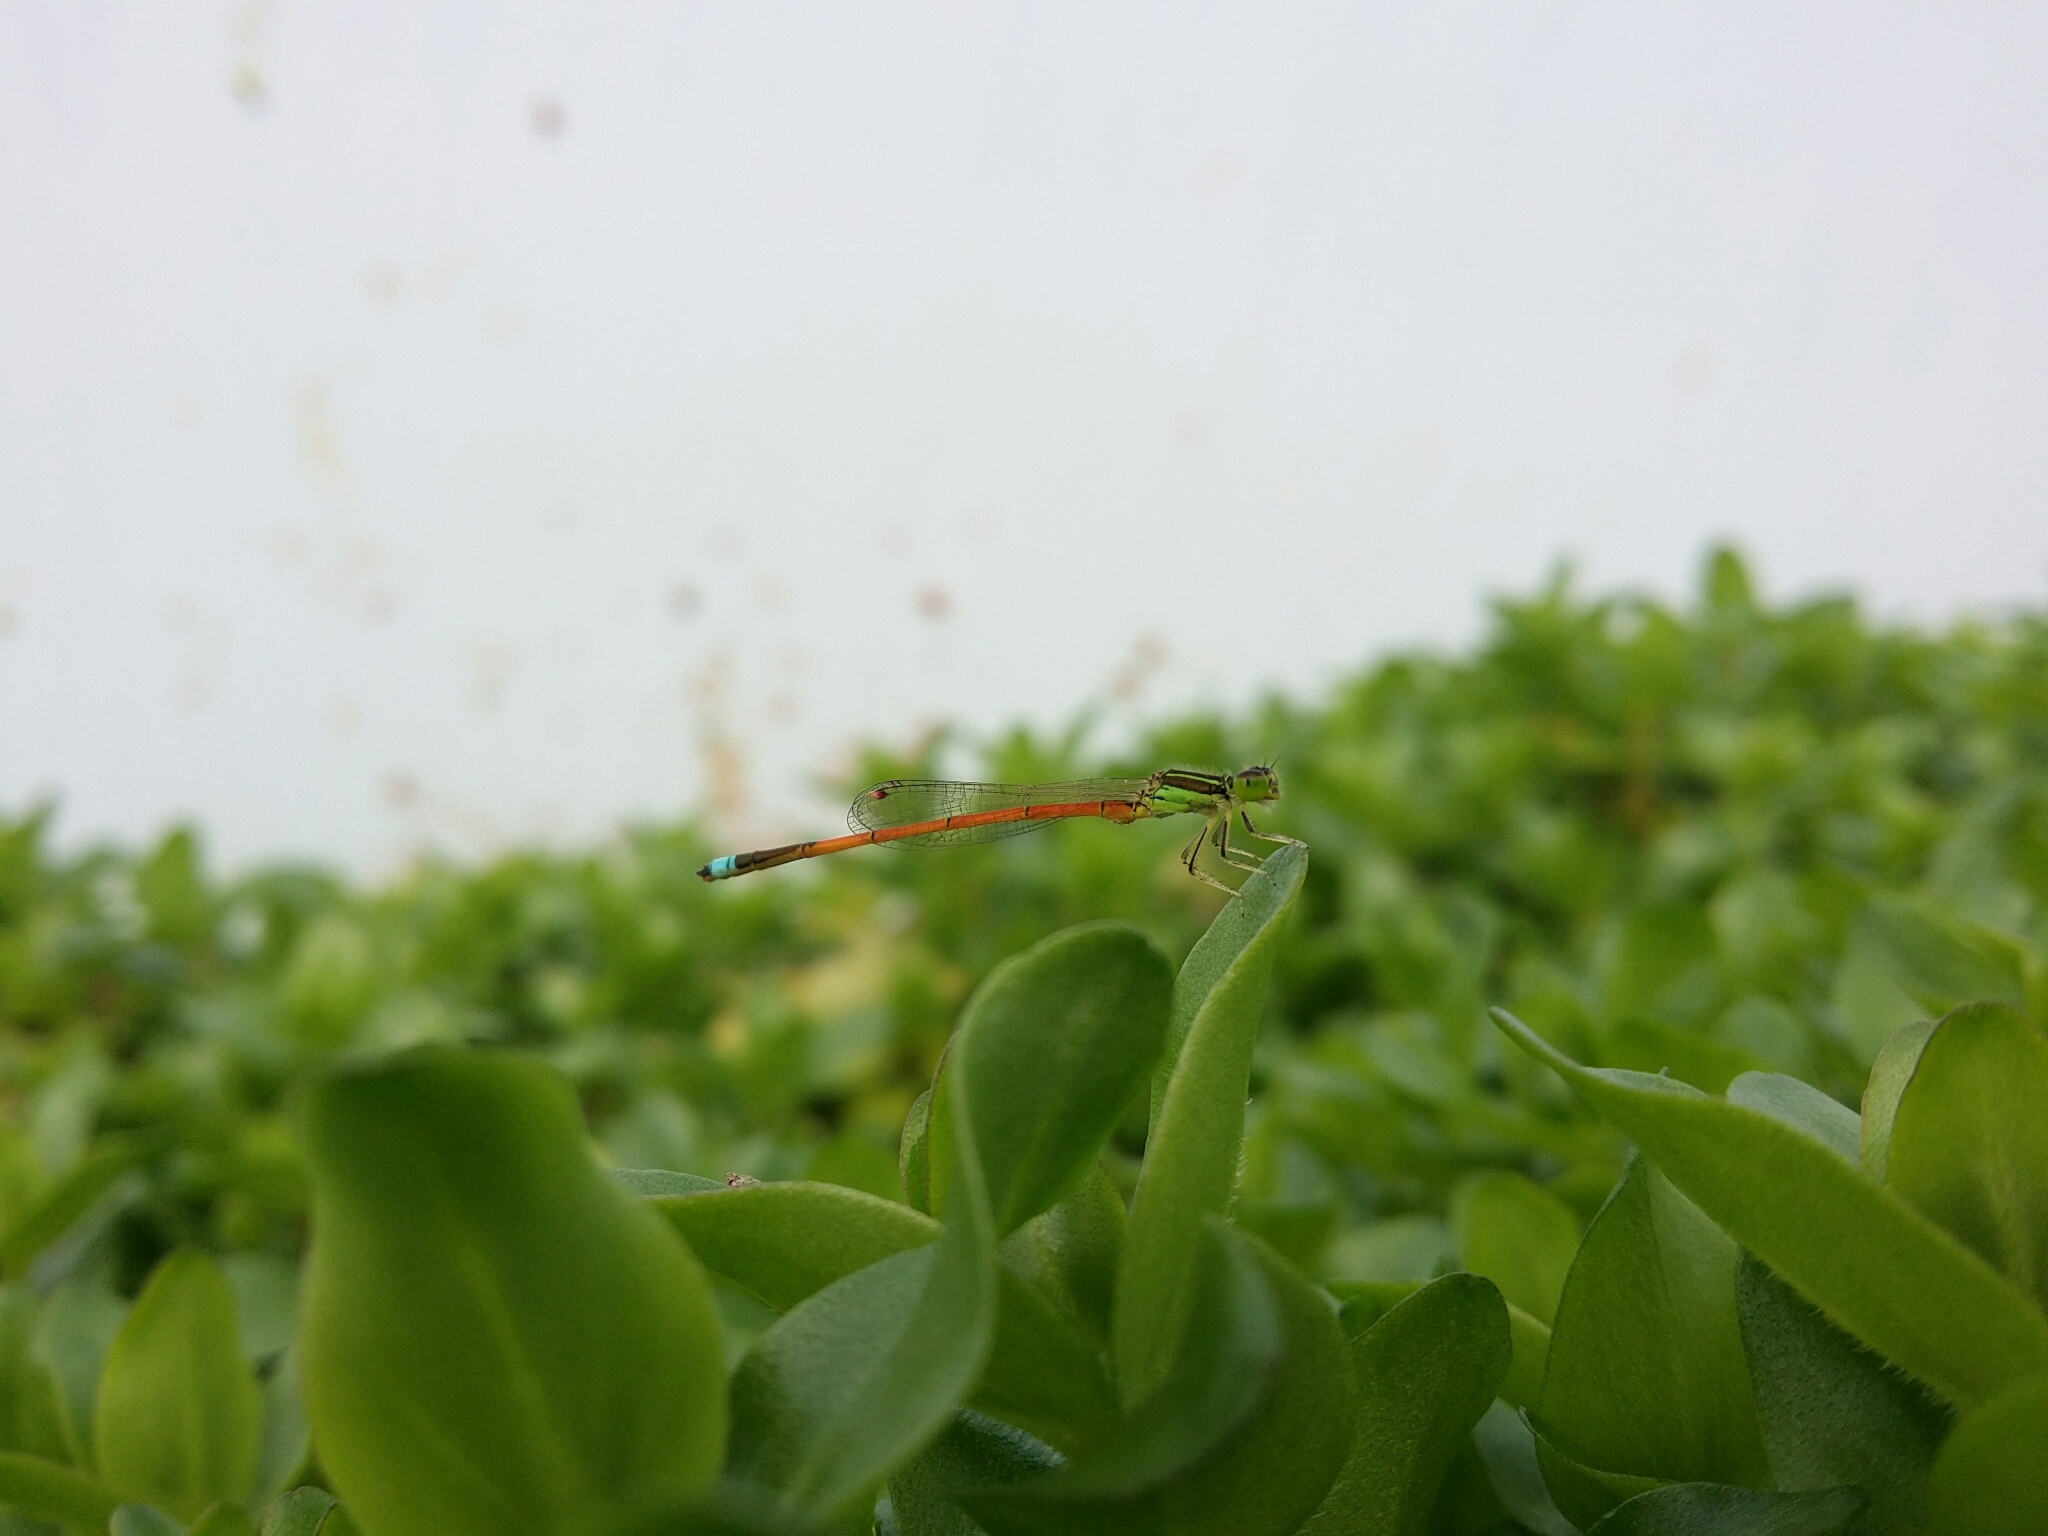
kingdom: Animalia
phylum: Arthropoda
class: Insecta
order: Odonata
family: Coenagrionidae
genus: Ischnura
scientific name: Ischnura aurora
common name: Gossamer damselfly
